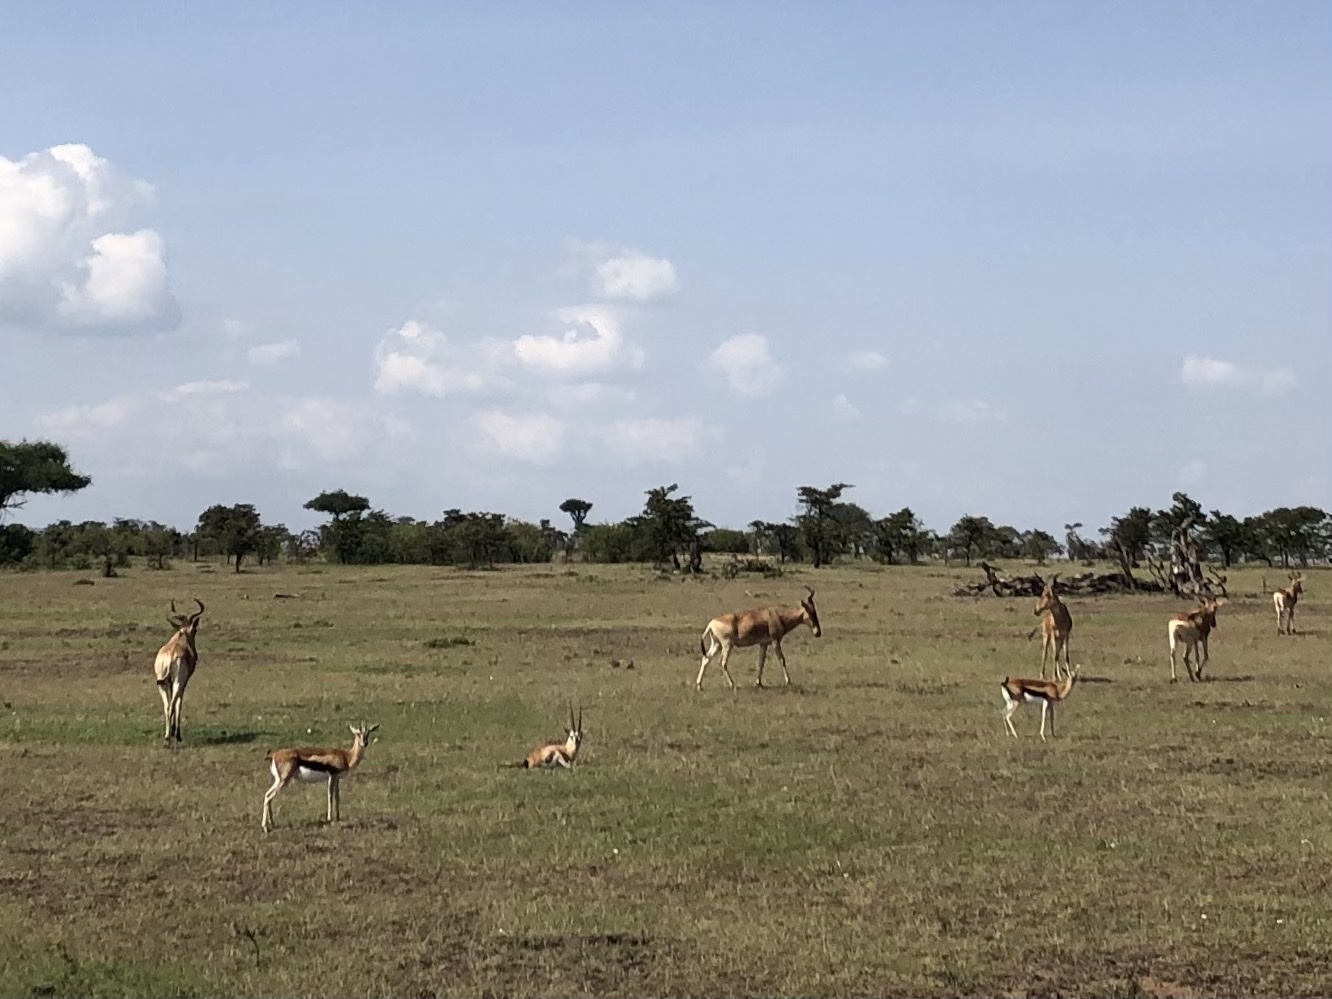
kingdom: Animalia
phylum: Chordata
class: Mammalia
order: Artiodactyla
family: Bovidae
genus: Alcelaphus
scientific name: Alcelaphus buselaphus
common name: Hartebeest
